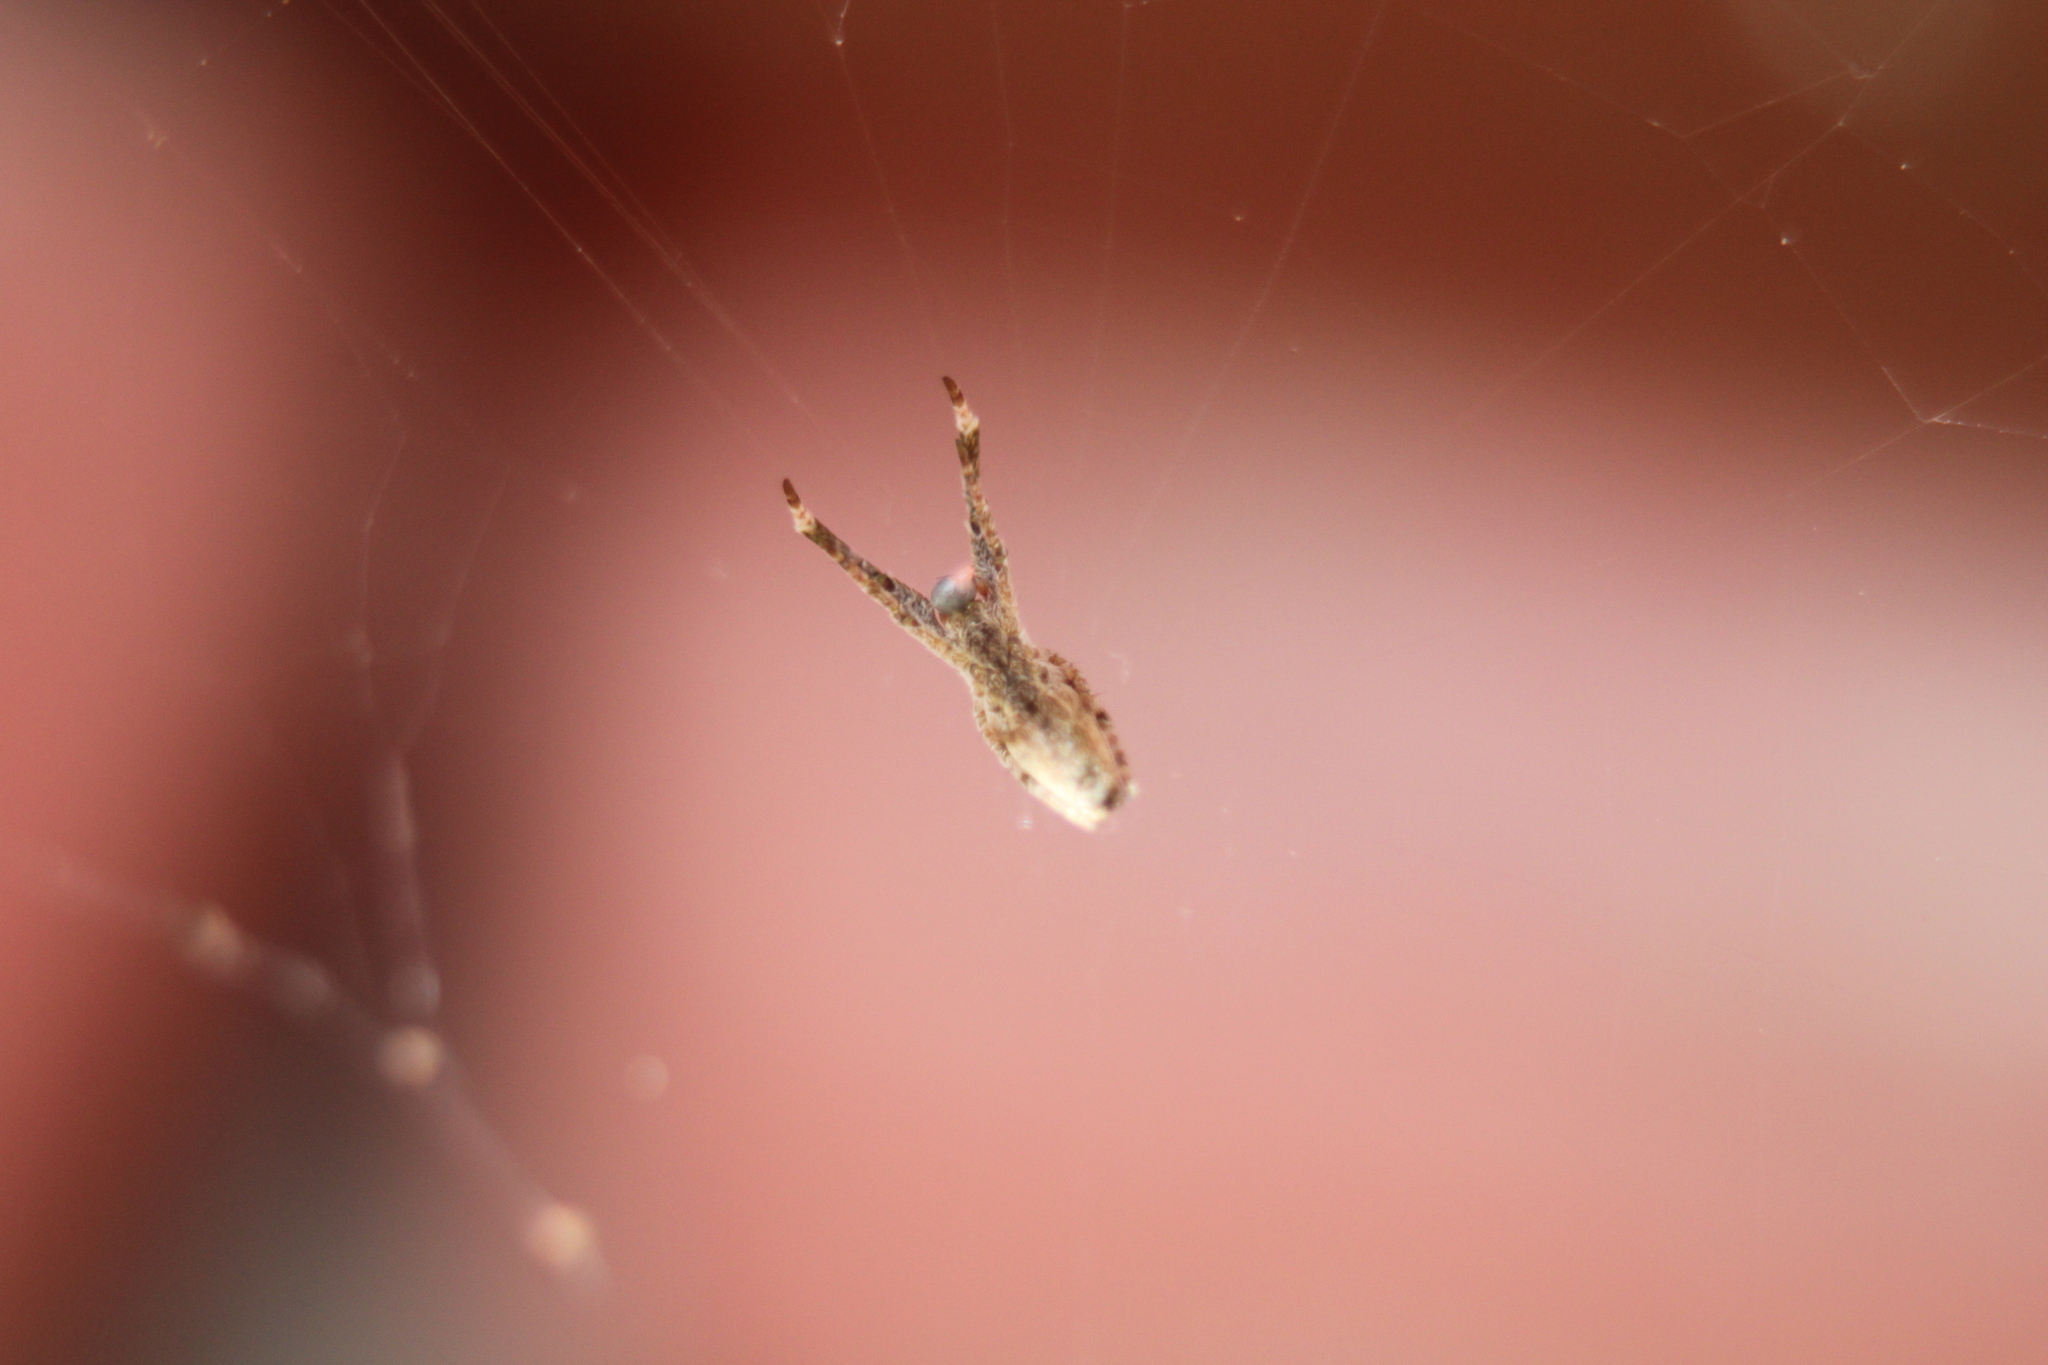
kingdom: Animalia
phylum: Arthropoda
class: Arachnida
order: Araneae
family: Uloboridae
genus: Uloborus
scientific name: Uloborus glomosus
